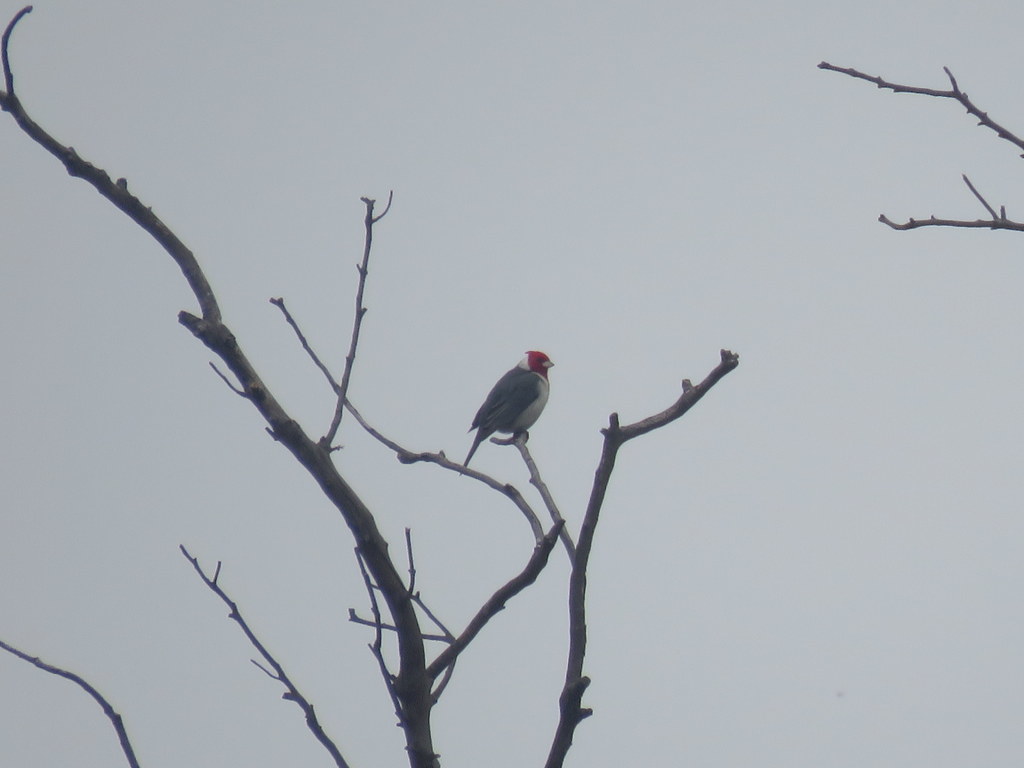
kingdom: Animalia
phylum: Chordata
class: Aves
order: Passeriformes
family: Thraupidae
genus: Paroaria
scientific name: Paroaria coronata
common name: Red-crested cardinal
